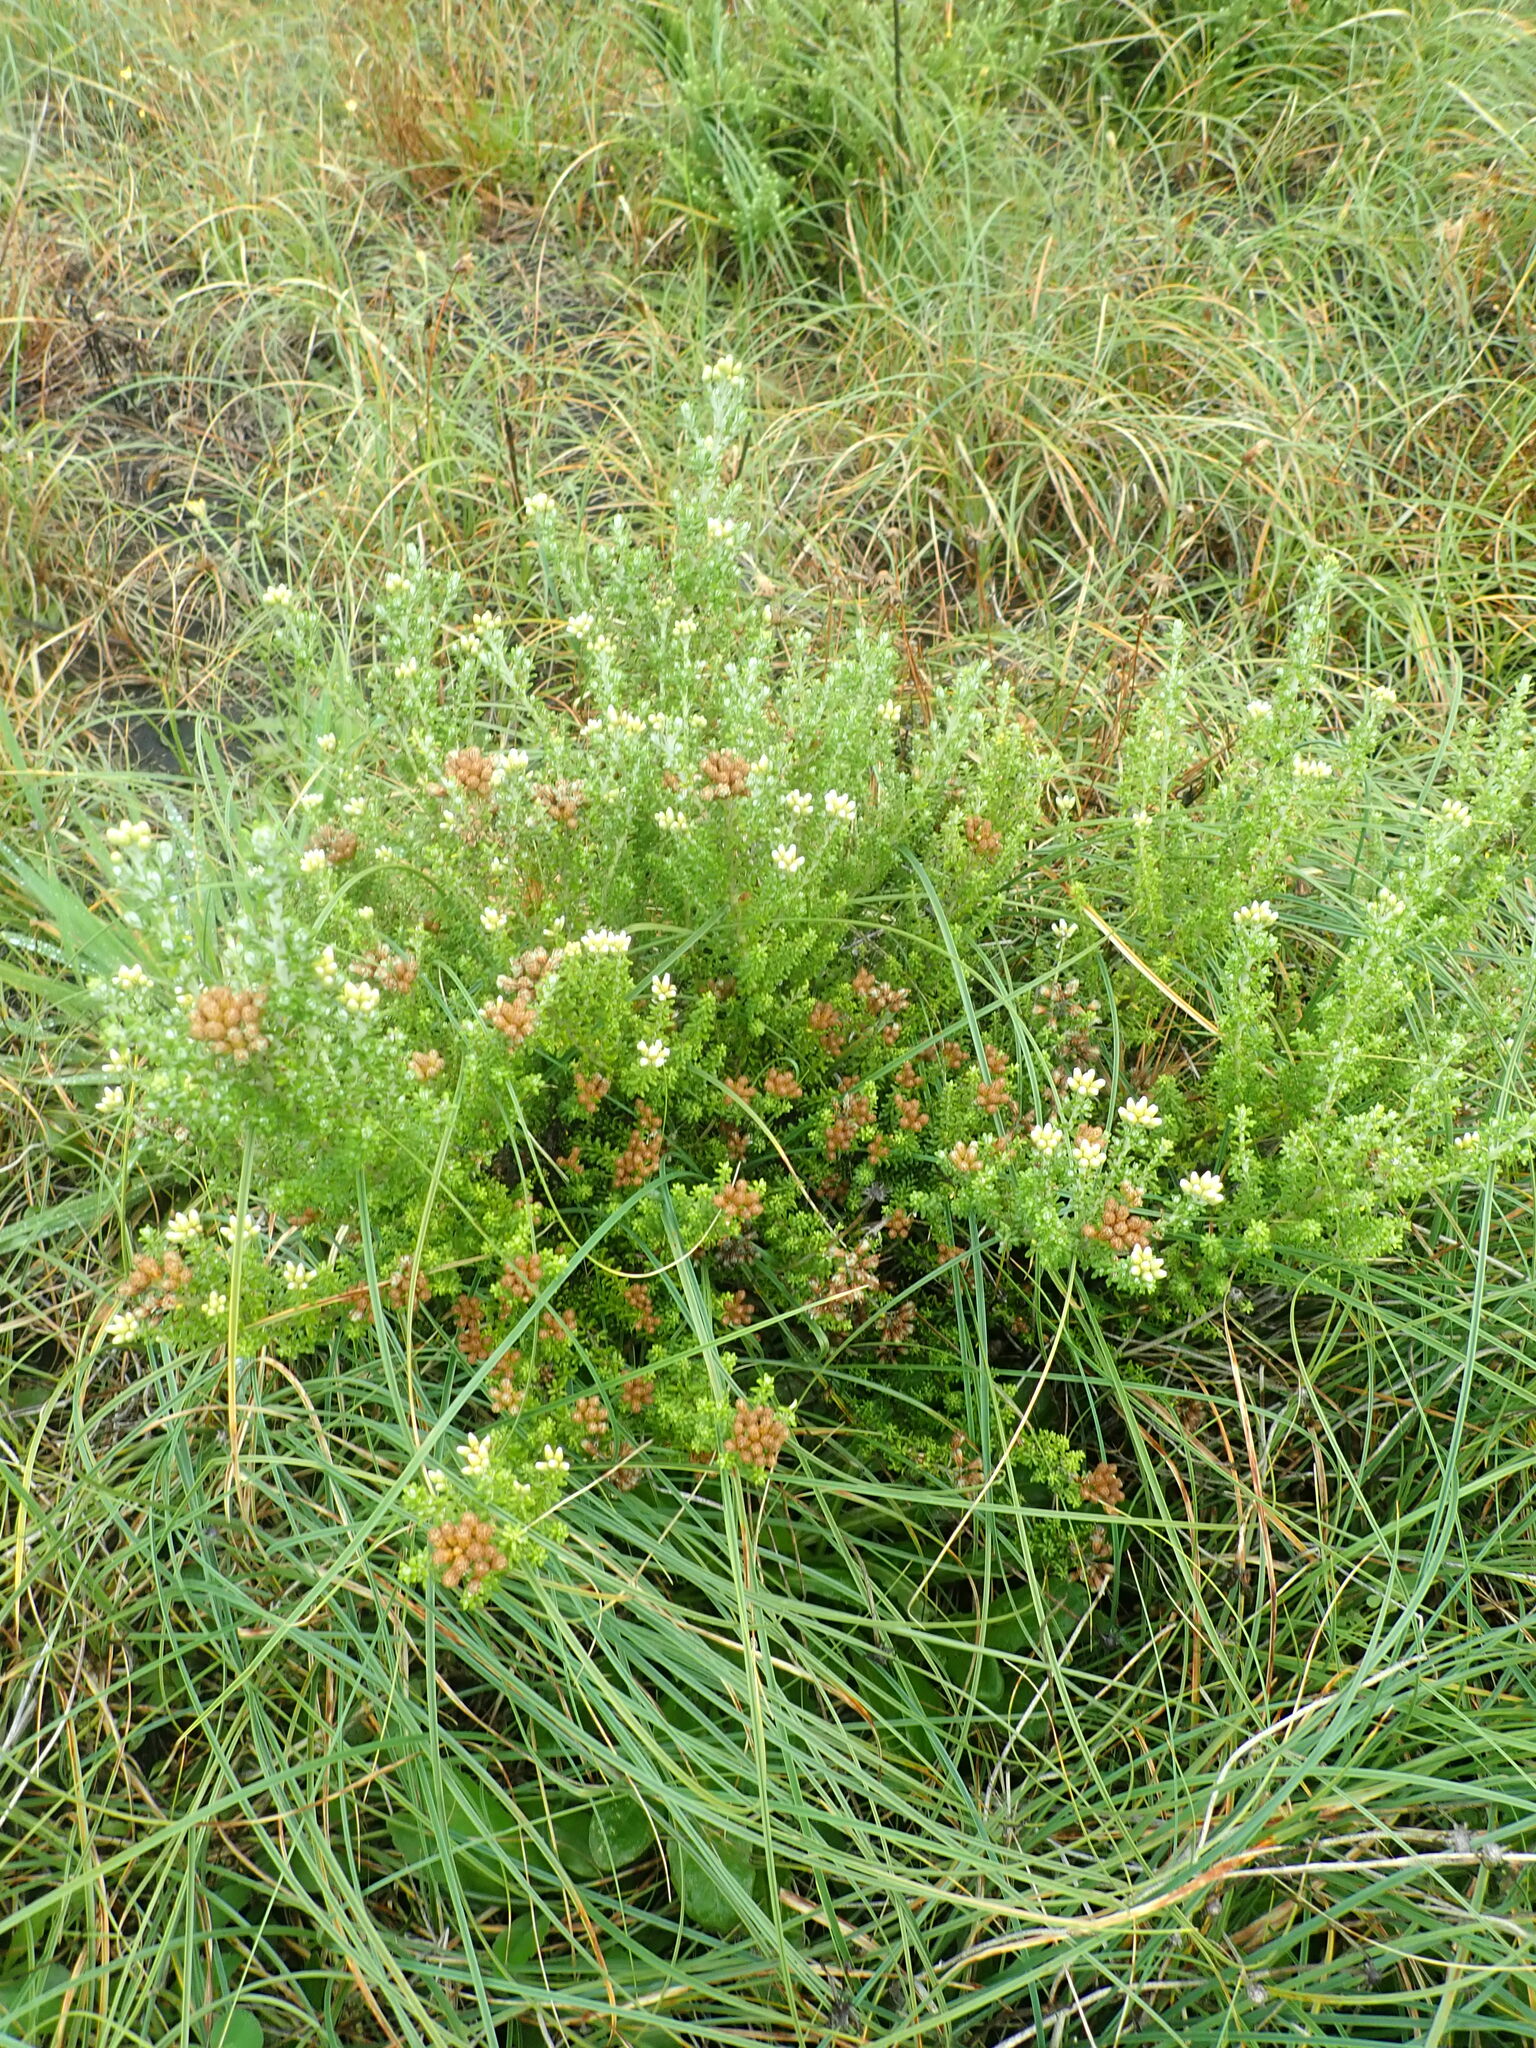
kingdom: Plantae
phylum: Tracheophyta
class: Magnoliopsida
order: Asterales
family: Asteraceae
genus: Ozothamnus
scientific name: Ozothamnus leptophyllus
